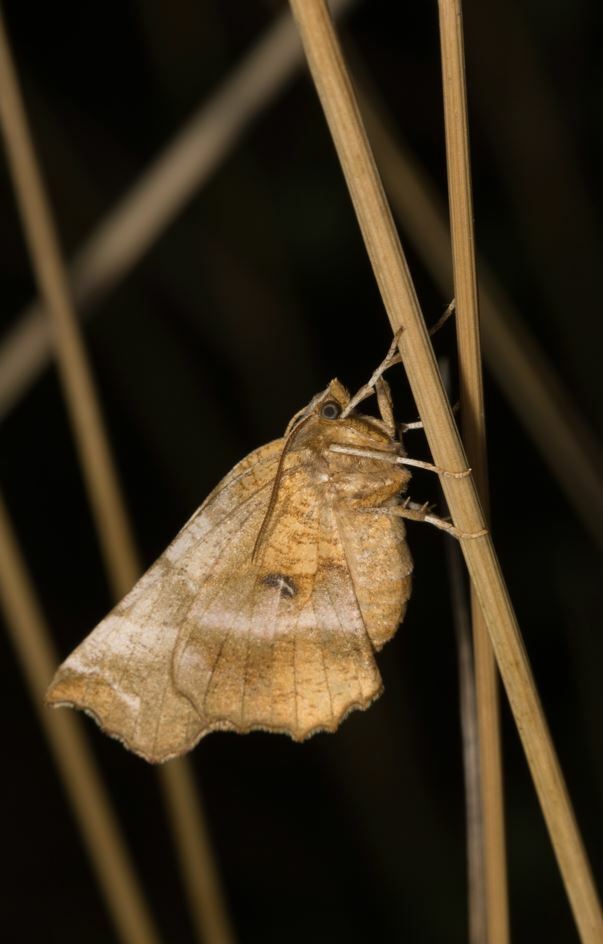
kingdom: Animalia
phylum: Arthropoda
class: Insecta
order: Lepidoptera
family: Geometridae
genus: Selenia
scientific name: Selenia dentaria
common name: Early thorn
